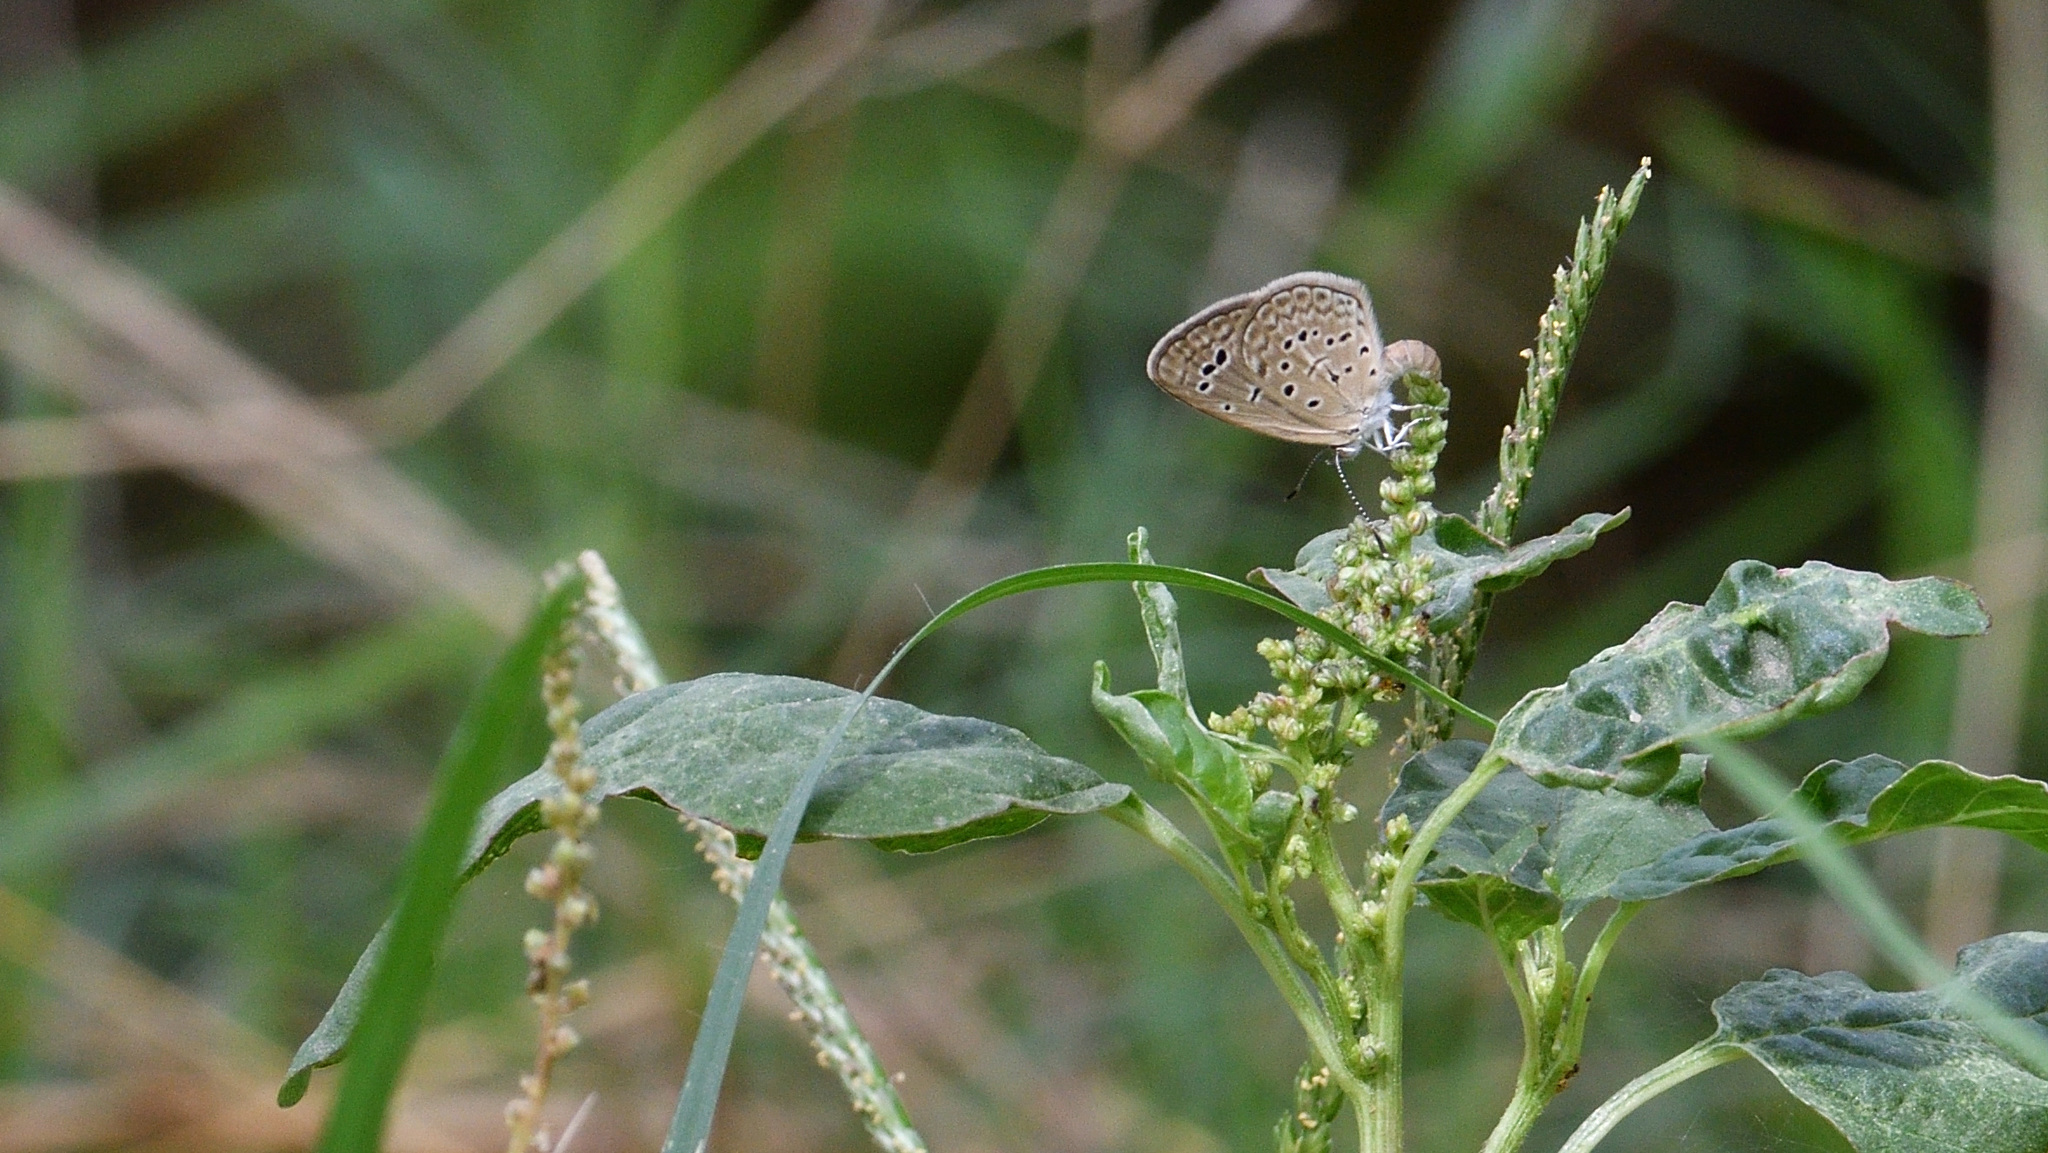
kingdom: Animalia
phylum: Arthropoda
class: Insecta
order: Lepidoptera
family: Lycaenidae
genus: Zizeeria
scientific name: Zizeeria karsandra
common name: Dark grass blue
